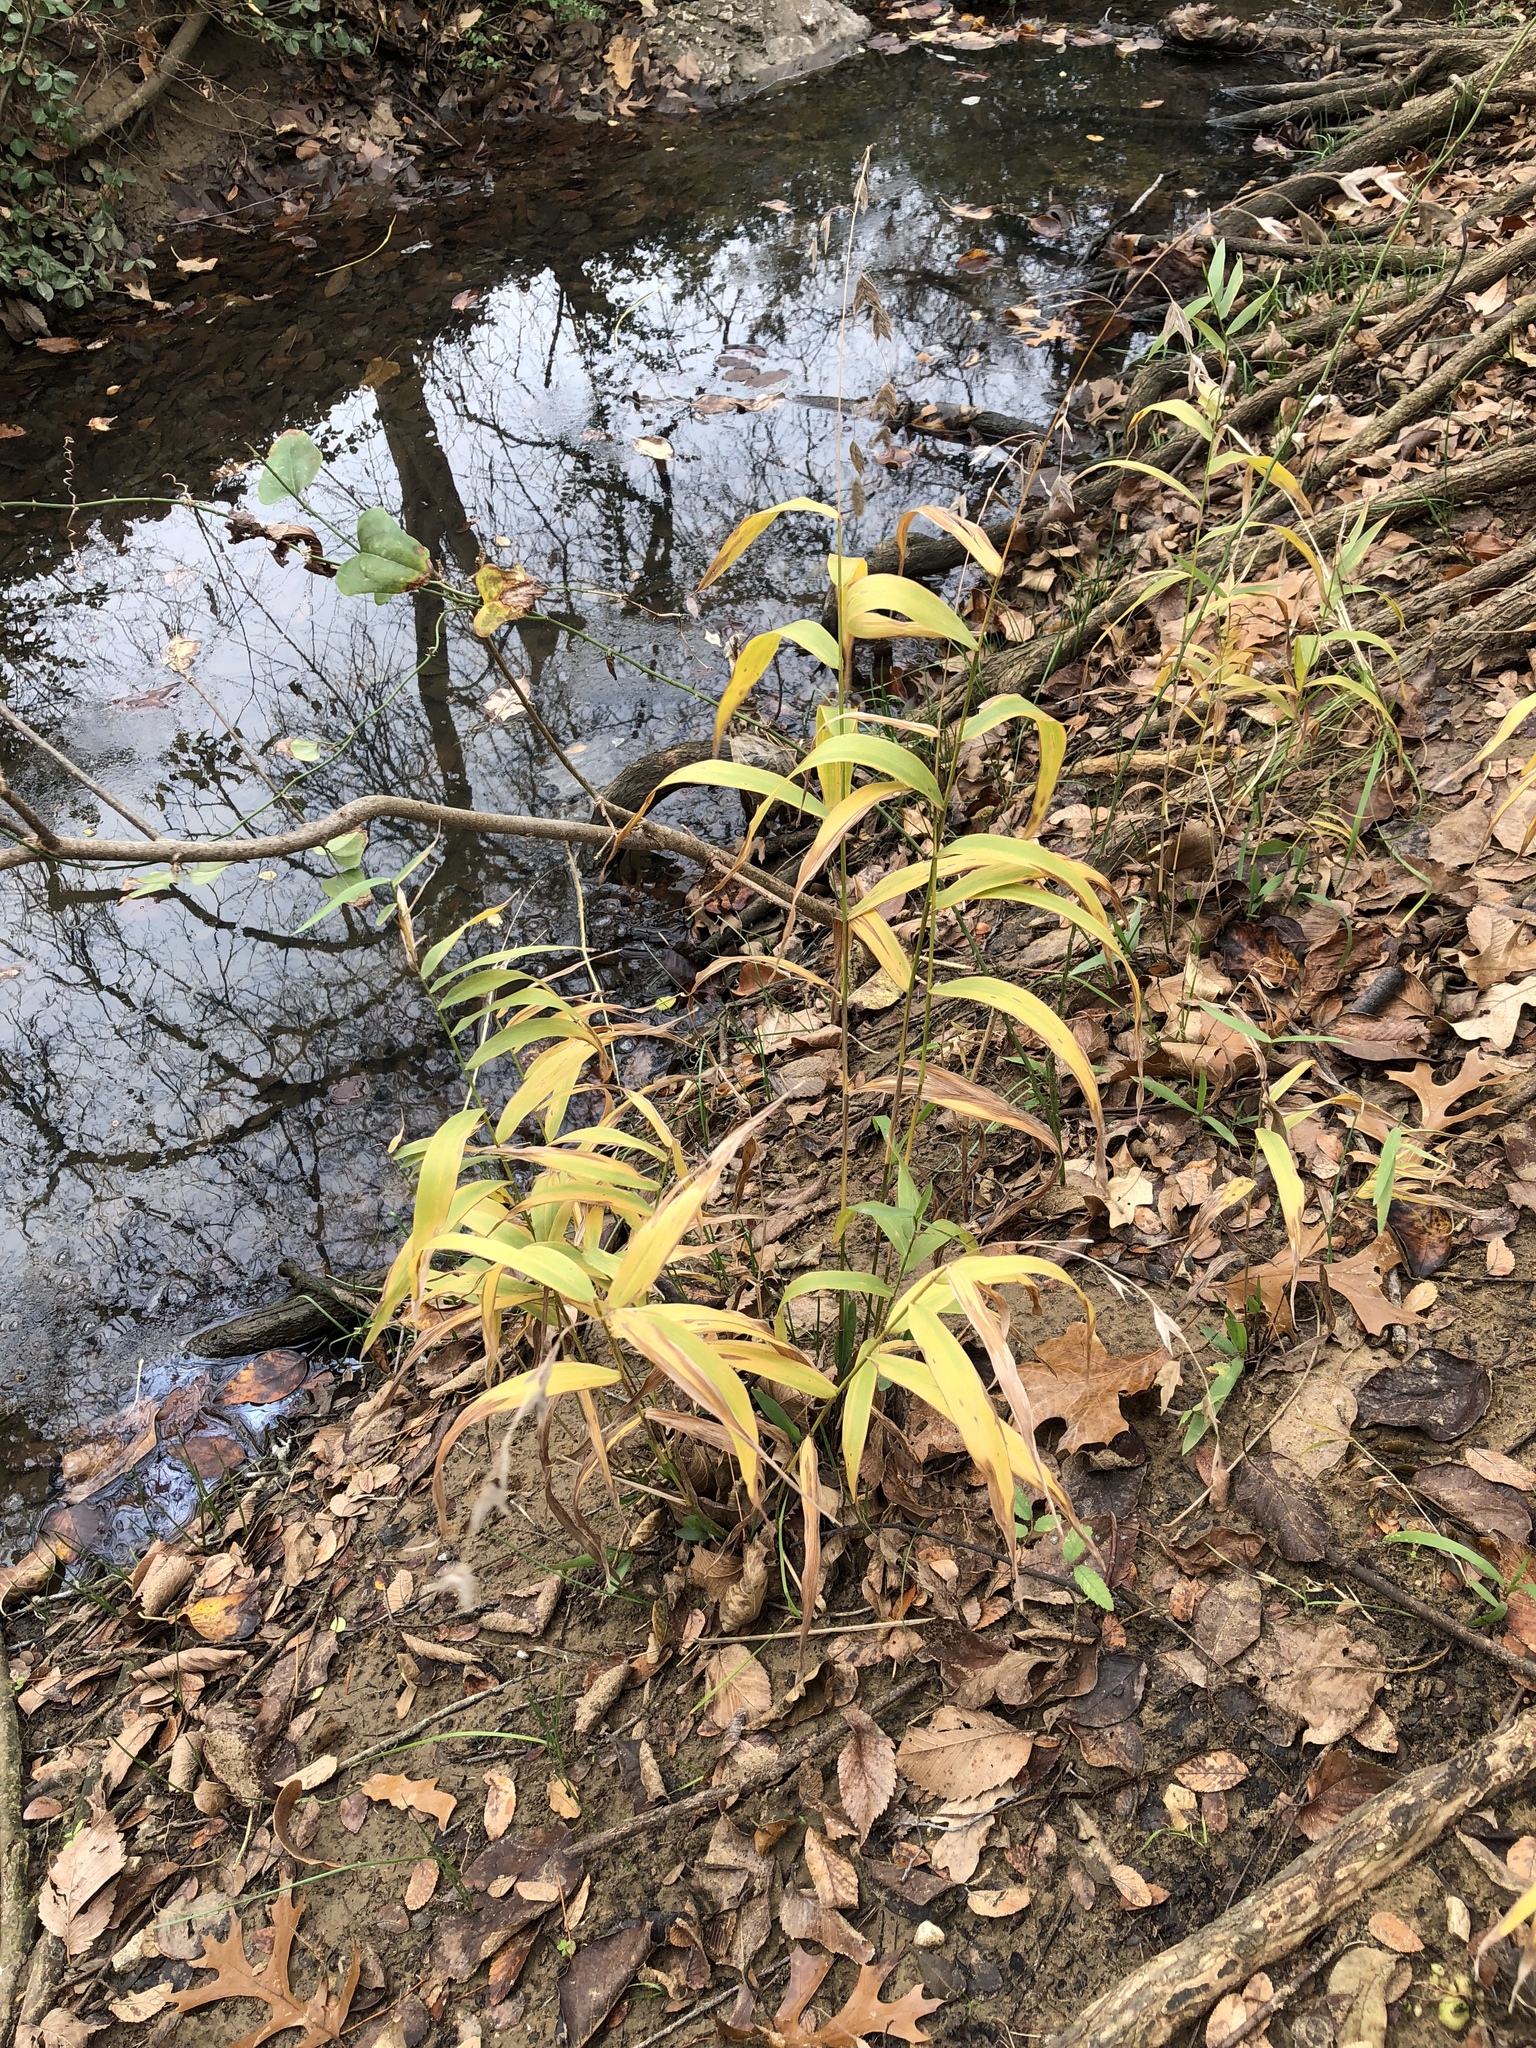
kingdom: Plantae
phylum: Tracheophyta
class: Liliopsida
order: Poales
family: Poaceae
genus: Chasmanthium
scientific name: Chasmanthium latifolium
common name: Broad-leaved chasmanthium
